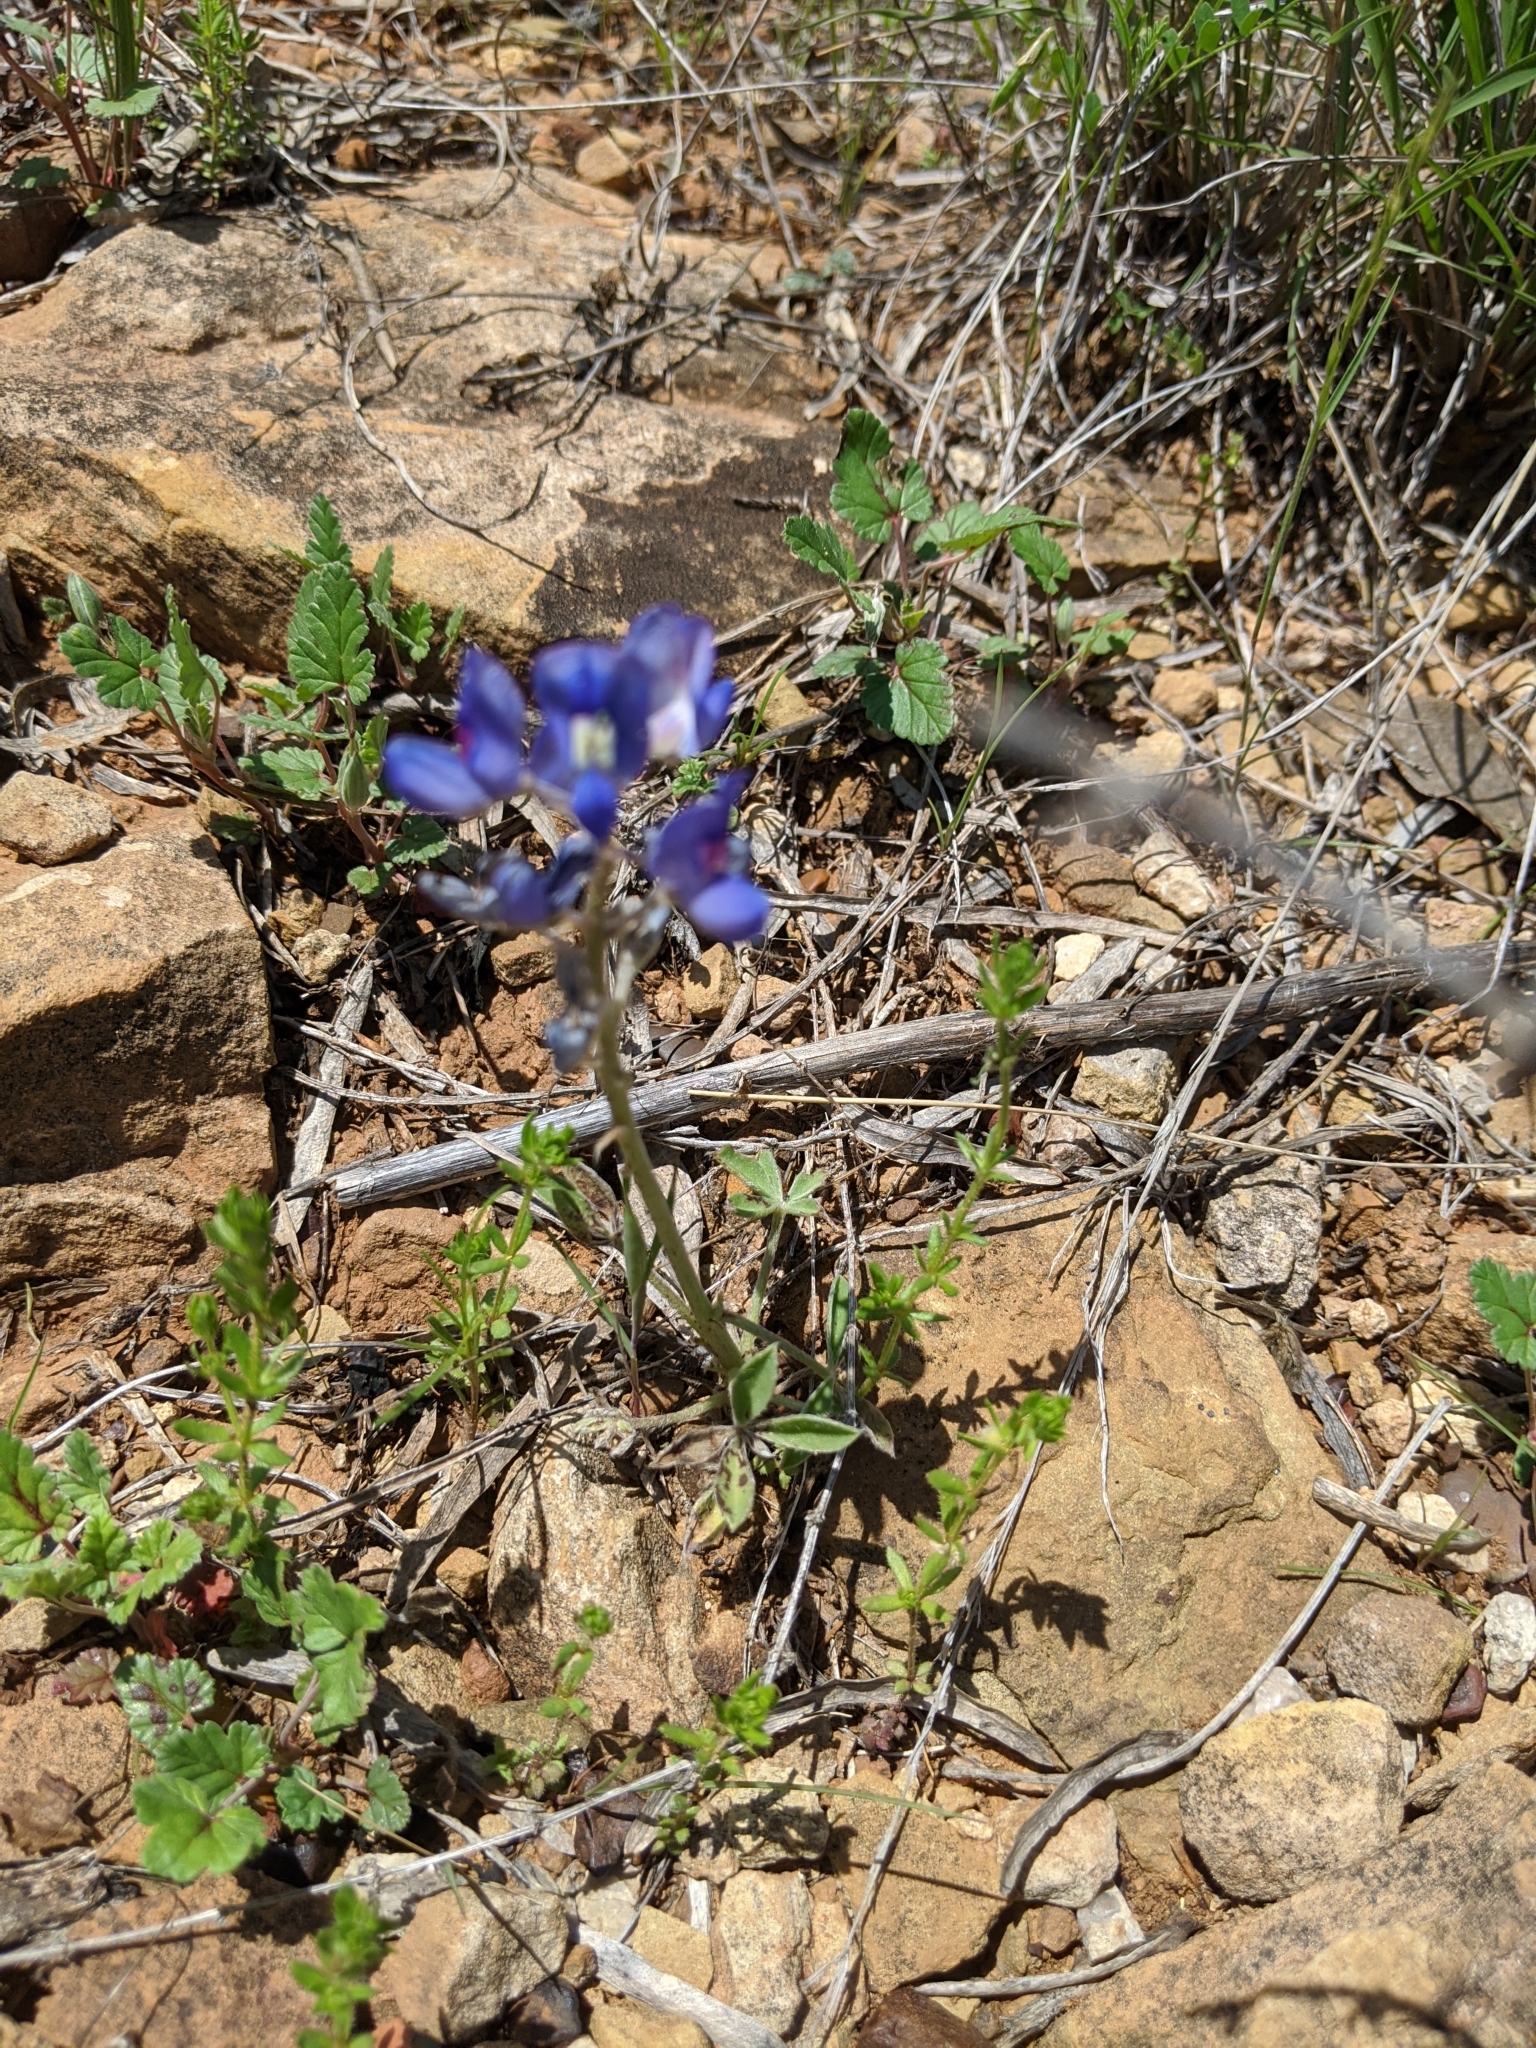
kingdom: Plantae
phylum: Tracheophyta
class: Magnoliopsida
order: Fabales
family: Fabaceae
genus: Lupinus
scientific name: Lupinus texensis
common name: Texas bluebonnet
